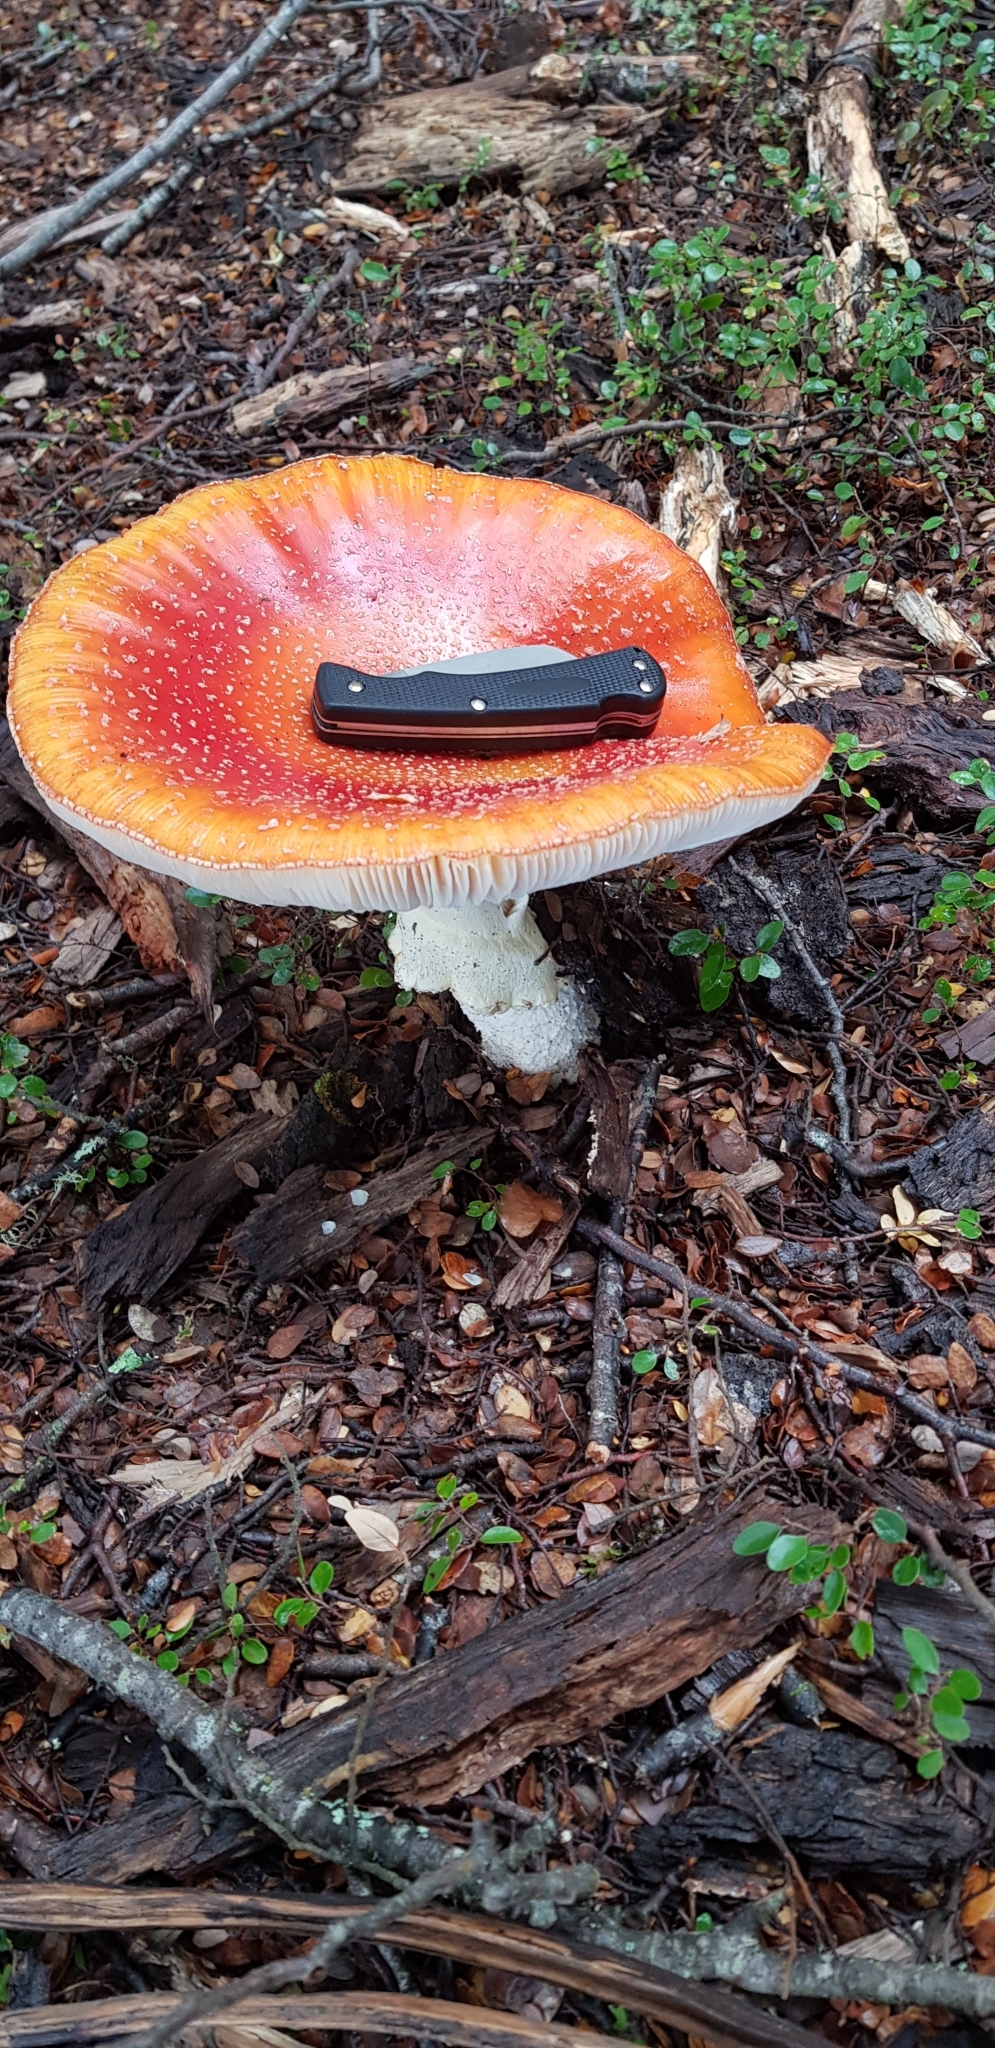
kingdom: Fungi
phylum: Basidiomycota
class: Agaricomycetes
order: Agaricales
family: Amanitaceae
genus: Amanita
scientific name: Amanita muscaria
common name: Fly agaric
